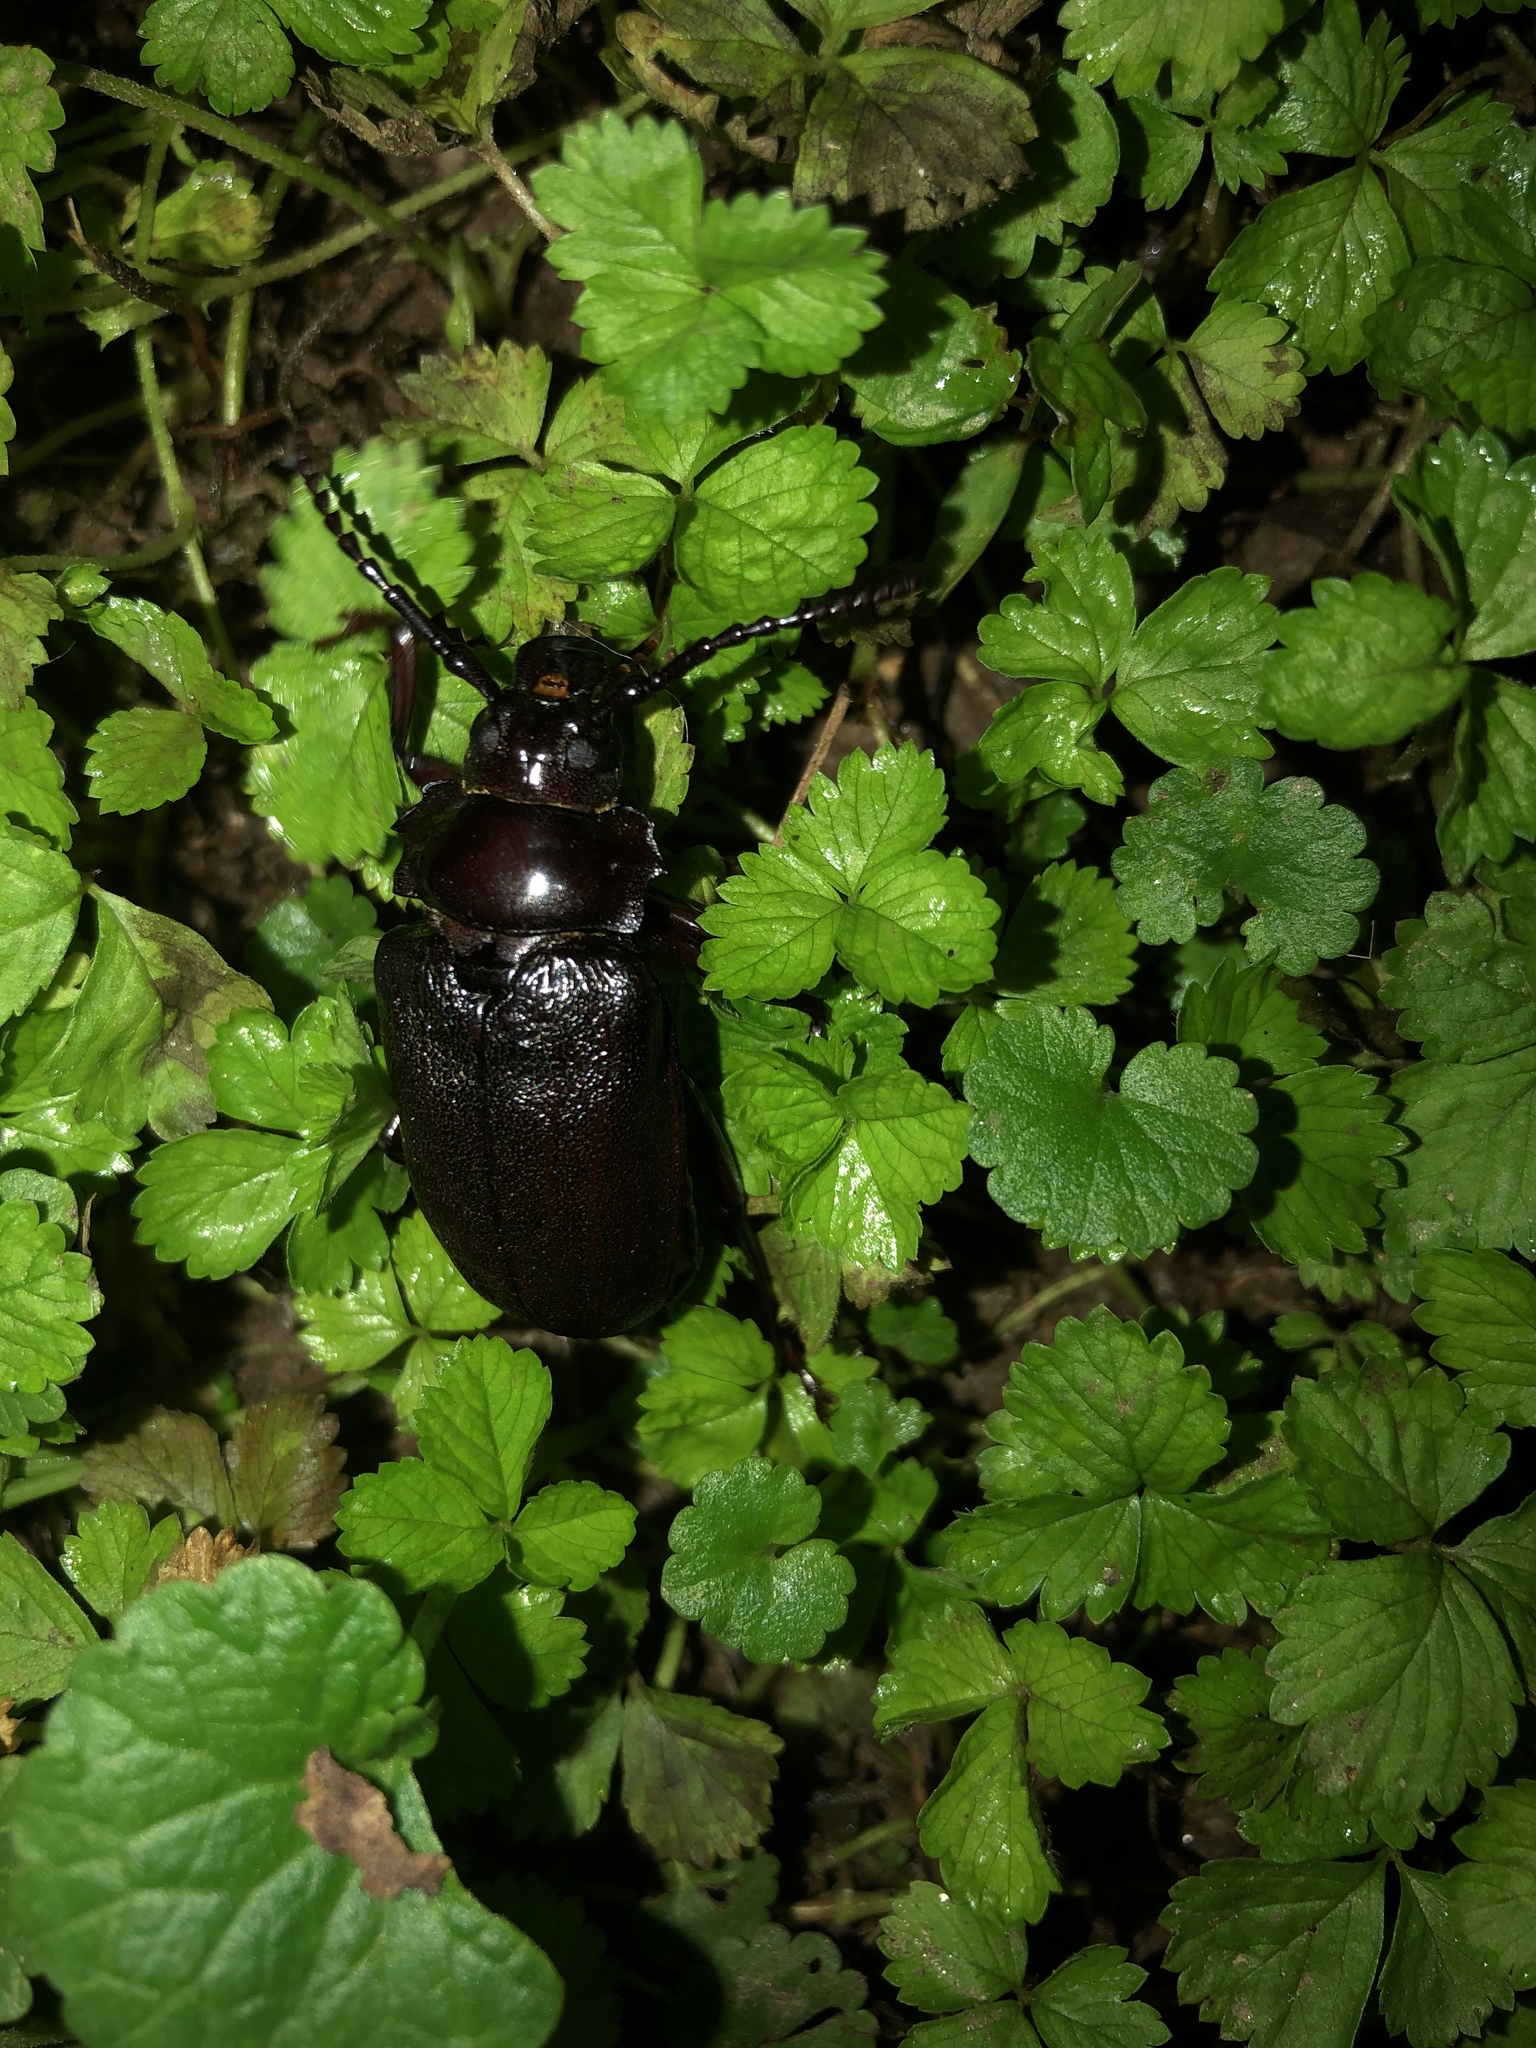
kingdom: Animalia
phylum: Arthropoda
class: Insecta
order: Coleoptera
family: Cerambycidae
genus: Prionus
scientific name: Prionus laticollis
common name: Broad necked prionus
